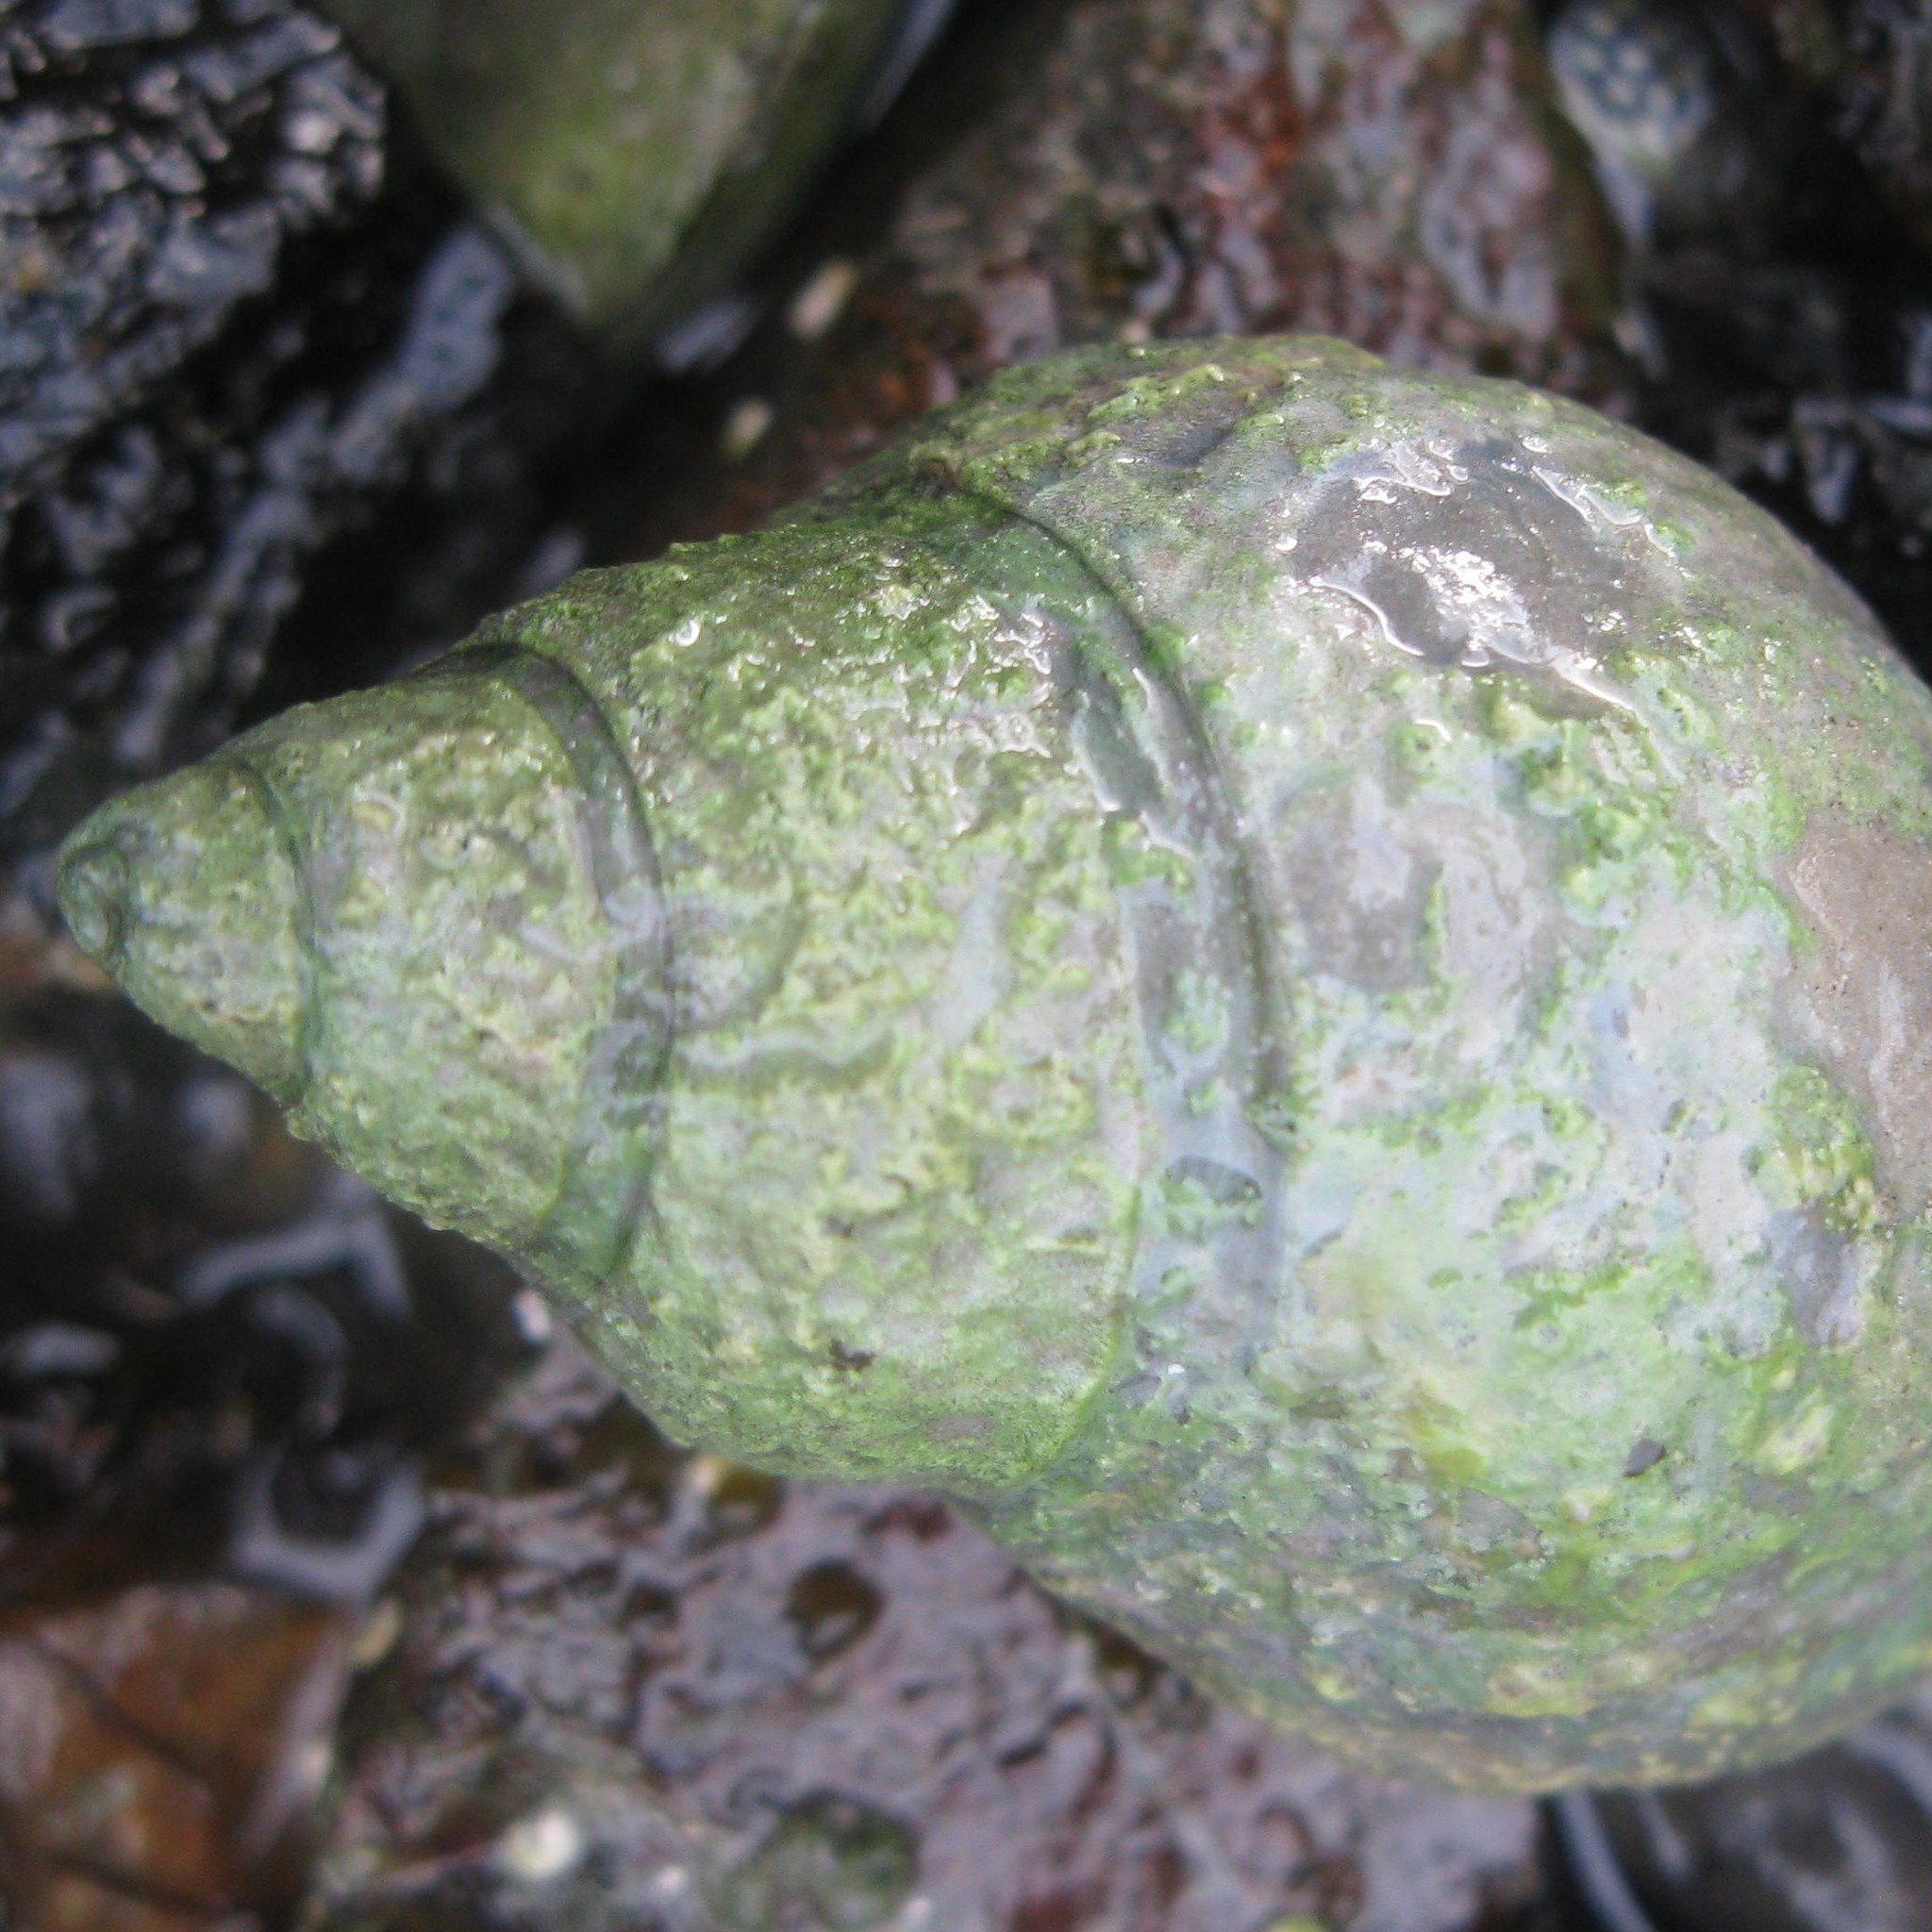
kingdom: Animalia
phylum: Mollusca
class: Gastropoda
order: Neogastropoda
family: Cominellidae
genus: Cominella
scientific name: Cominella maculosa
